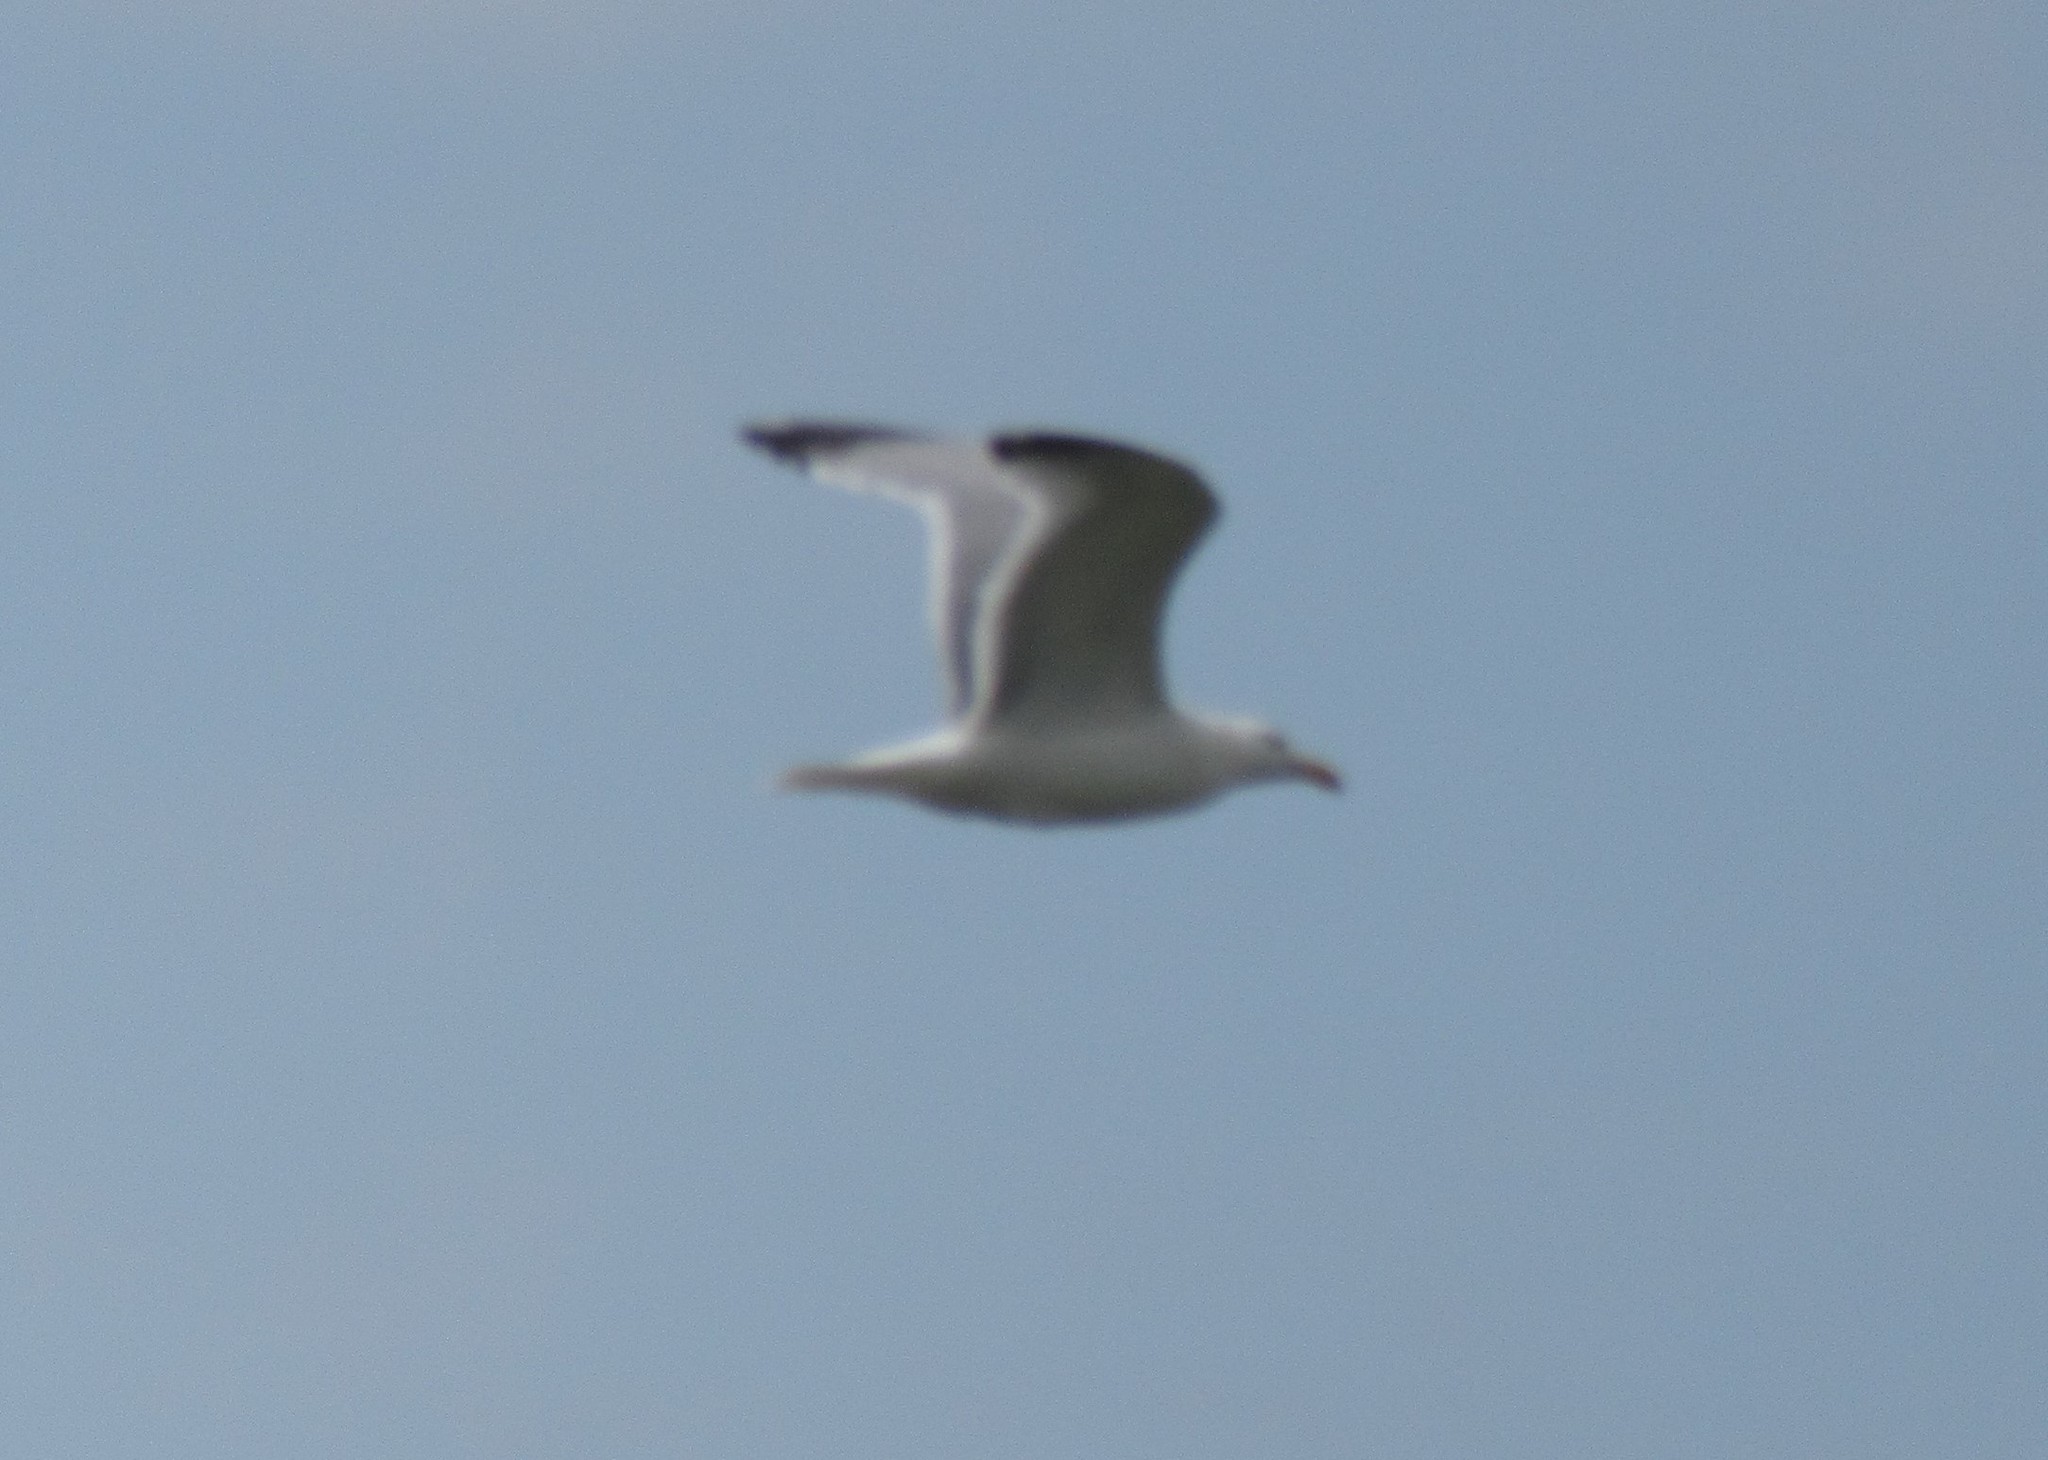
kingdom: Animalia
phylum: Chordata
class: Aves
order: Charadriiformes
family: Laridae
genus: Larus
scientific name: Larus argentatus
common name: Herring gull
